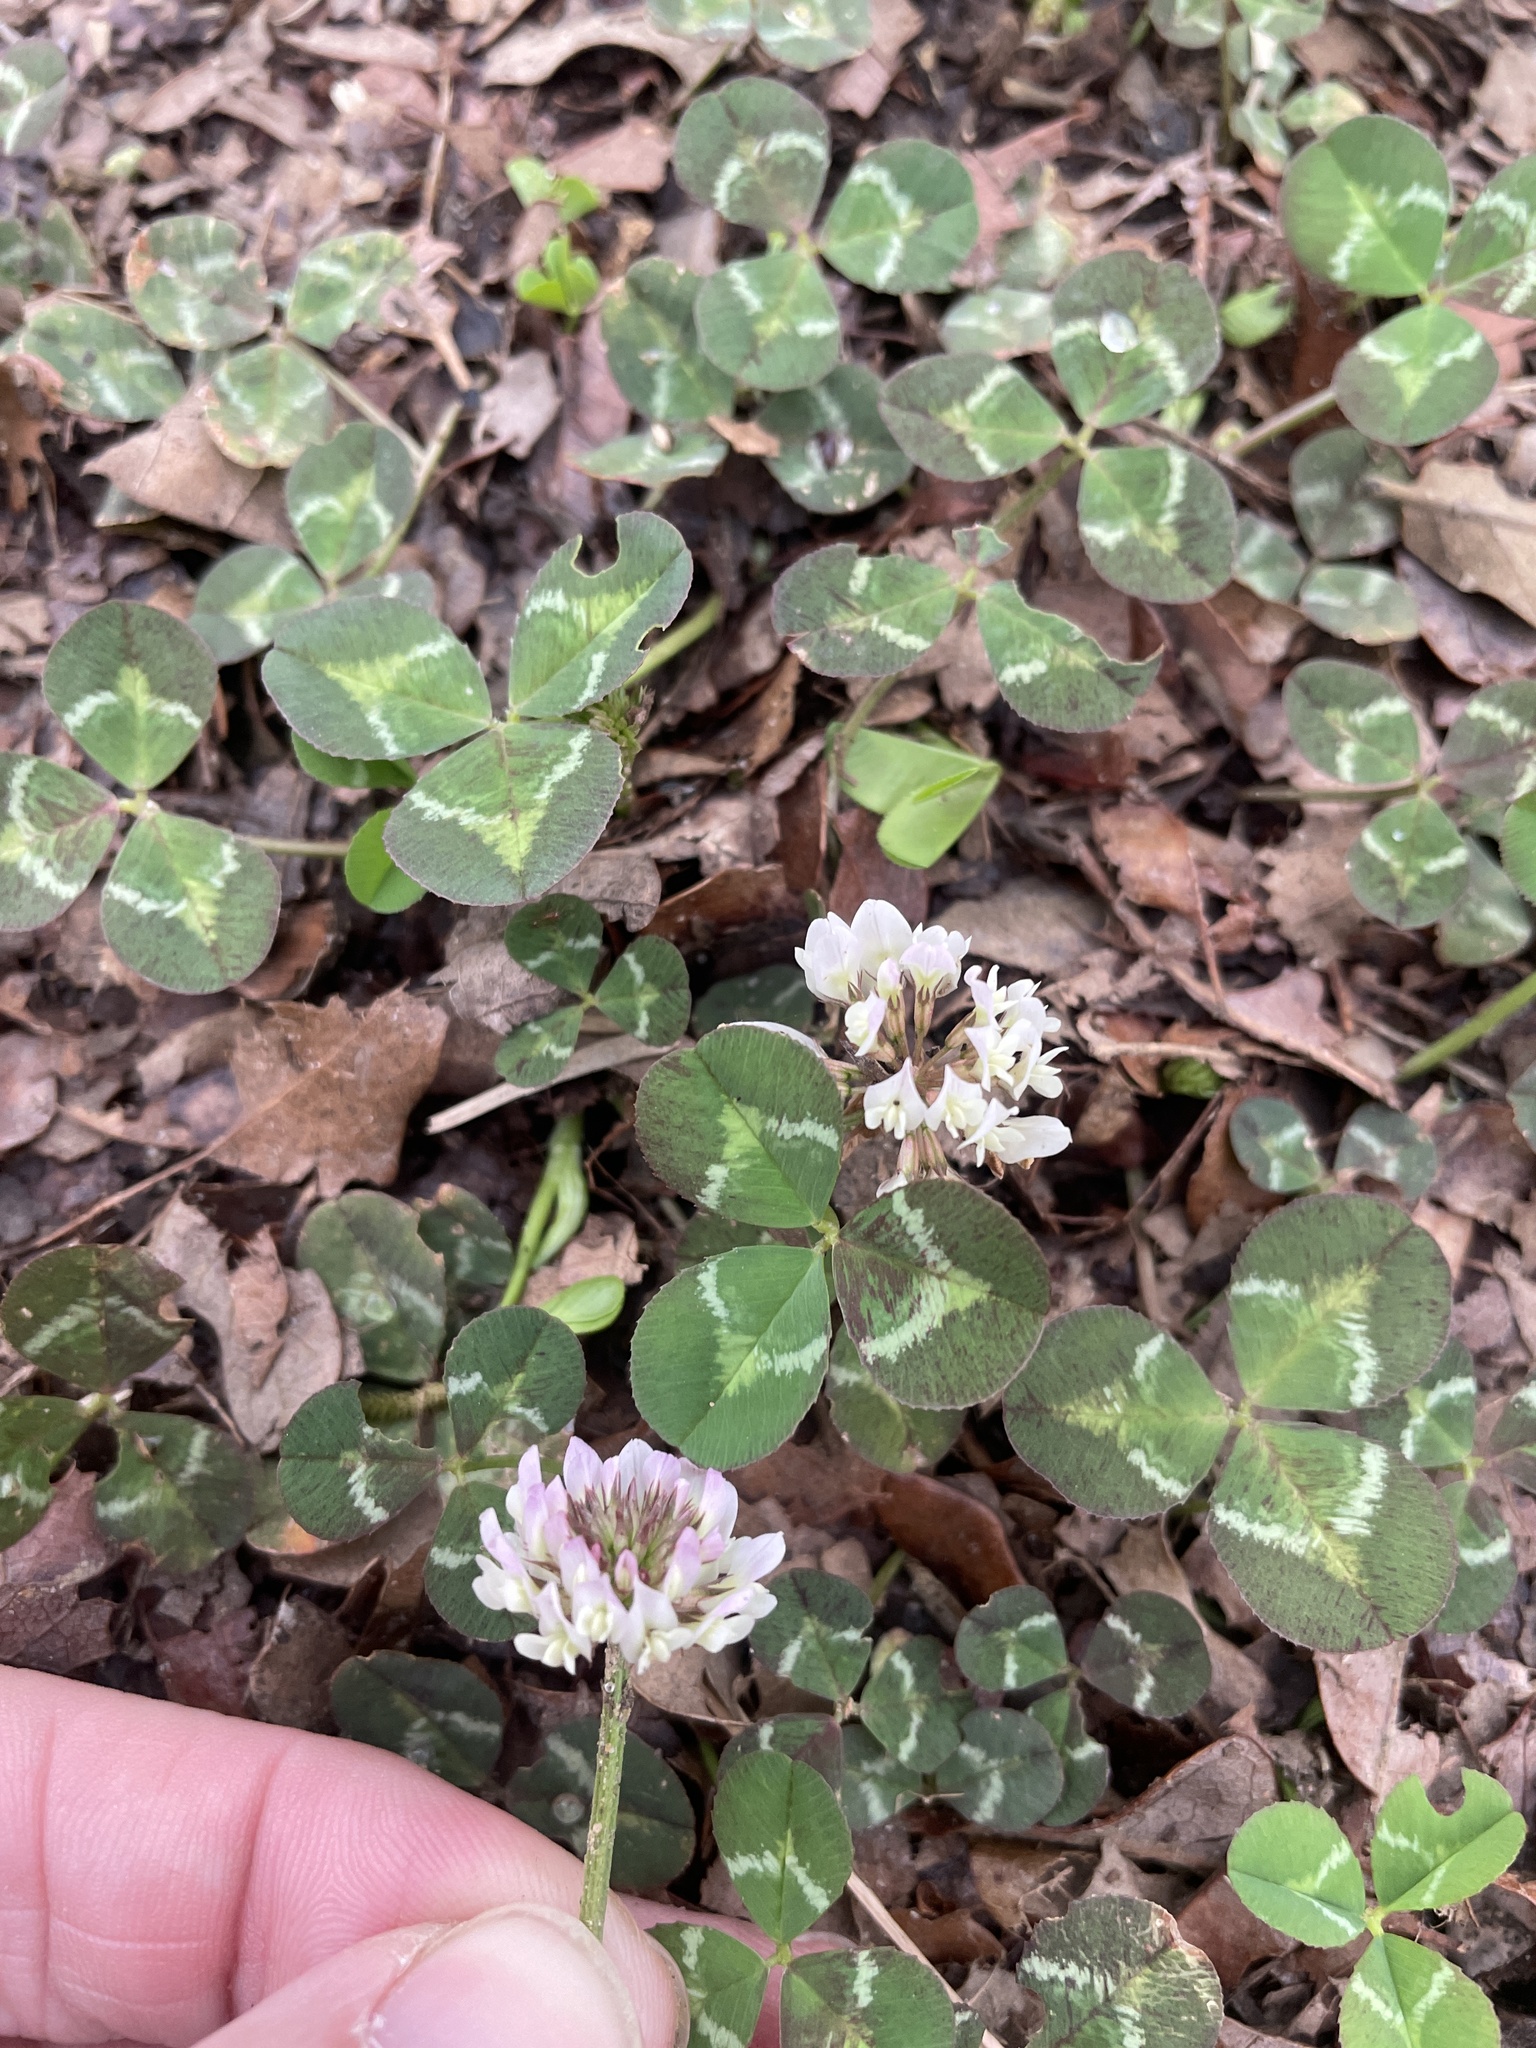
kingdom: Plantae
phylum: Tracheophyta
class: Magnoliopsida
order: Fabales
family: Fabaceae
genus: Trifolium
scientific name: Trifolium repens
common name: White clover
